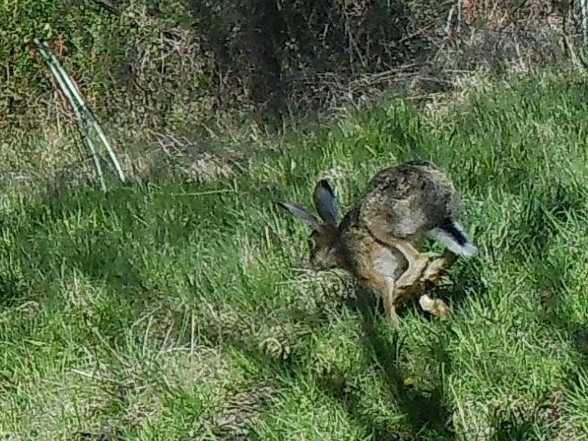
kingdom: Animalia
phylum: Chordata
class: Mammalia
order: Lagomorpha
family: Leporidae
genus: Lepus
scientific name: Lepus europaeus
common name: European hare
